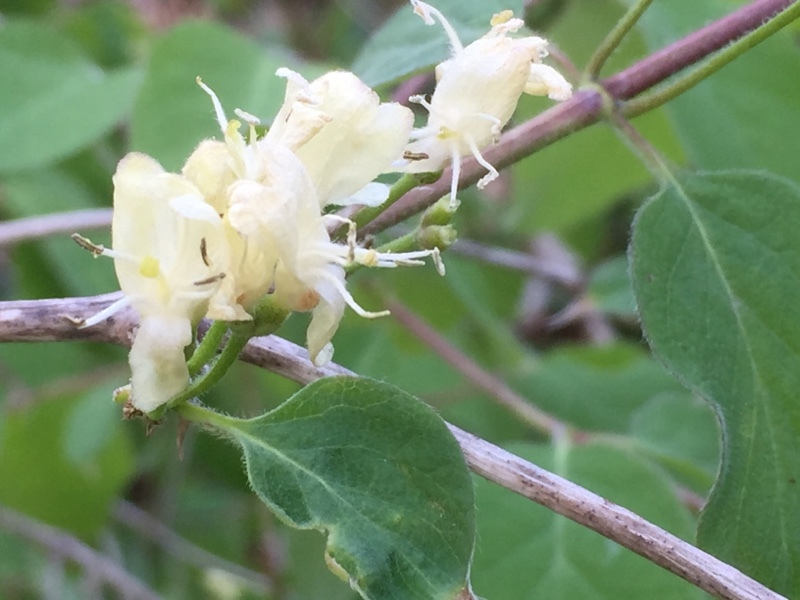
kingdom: Plantae
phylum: Tracheophyta
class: Magnoliopsida
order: Dipsacales
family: Caprifoliaceae
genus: Lonicera
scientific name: Lonicera xylosteum
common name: Fly honeysuckle
